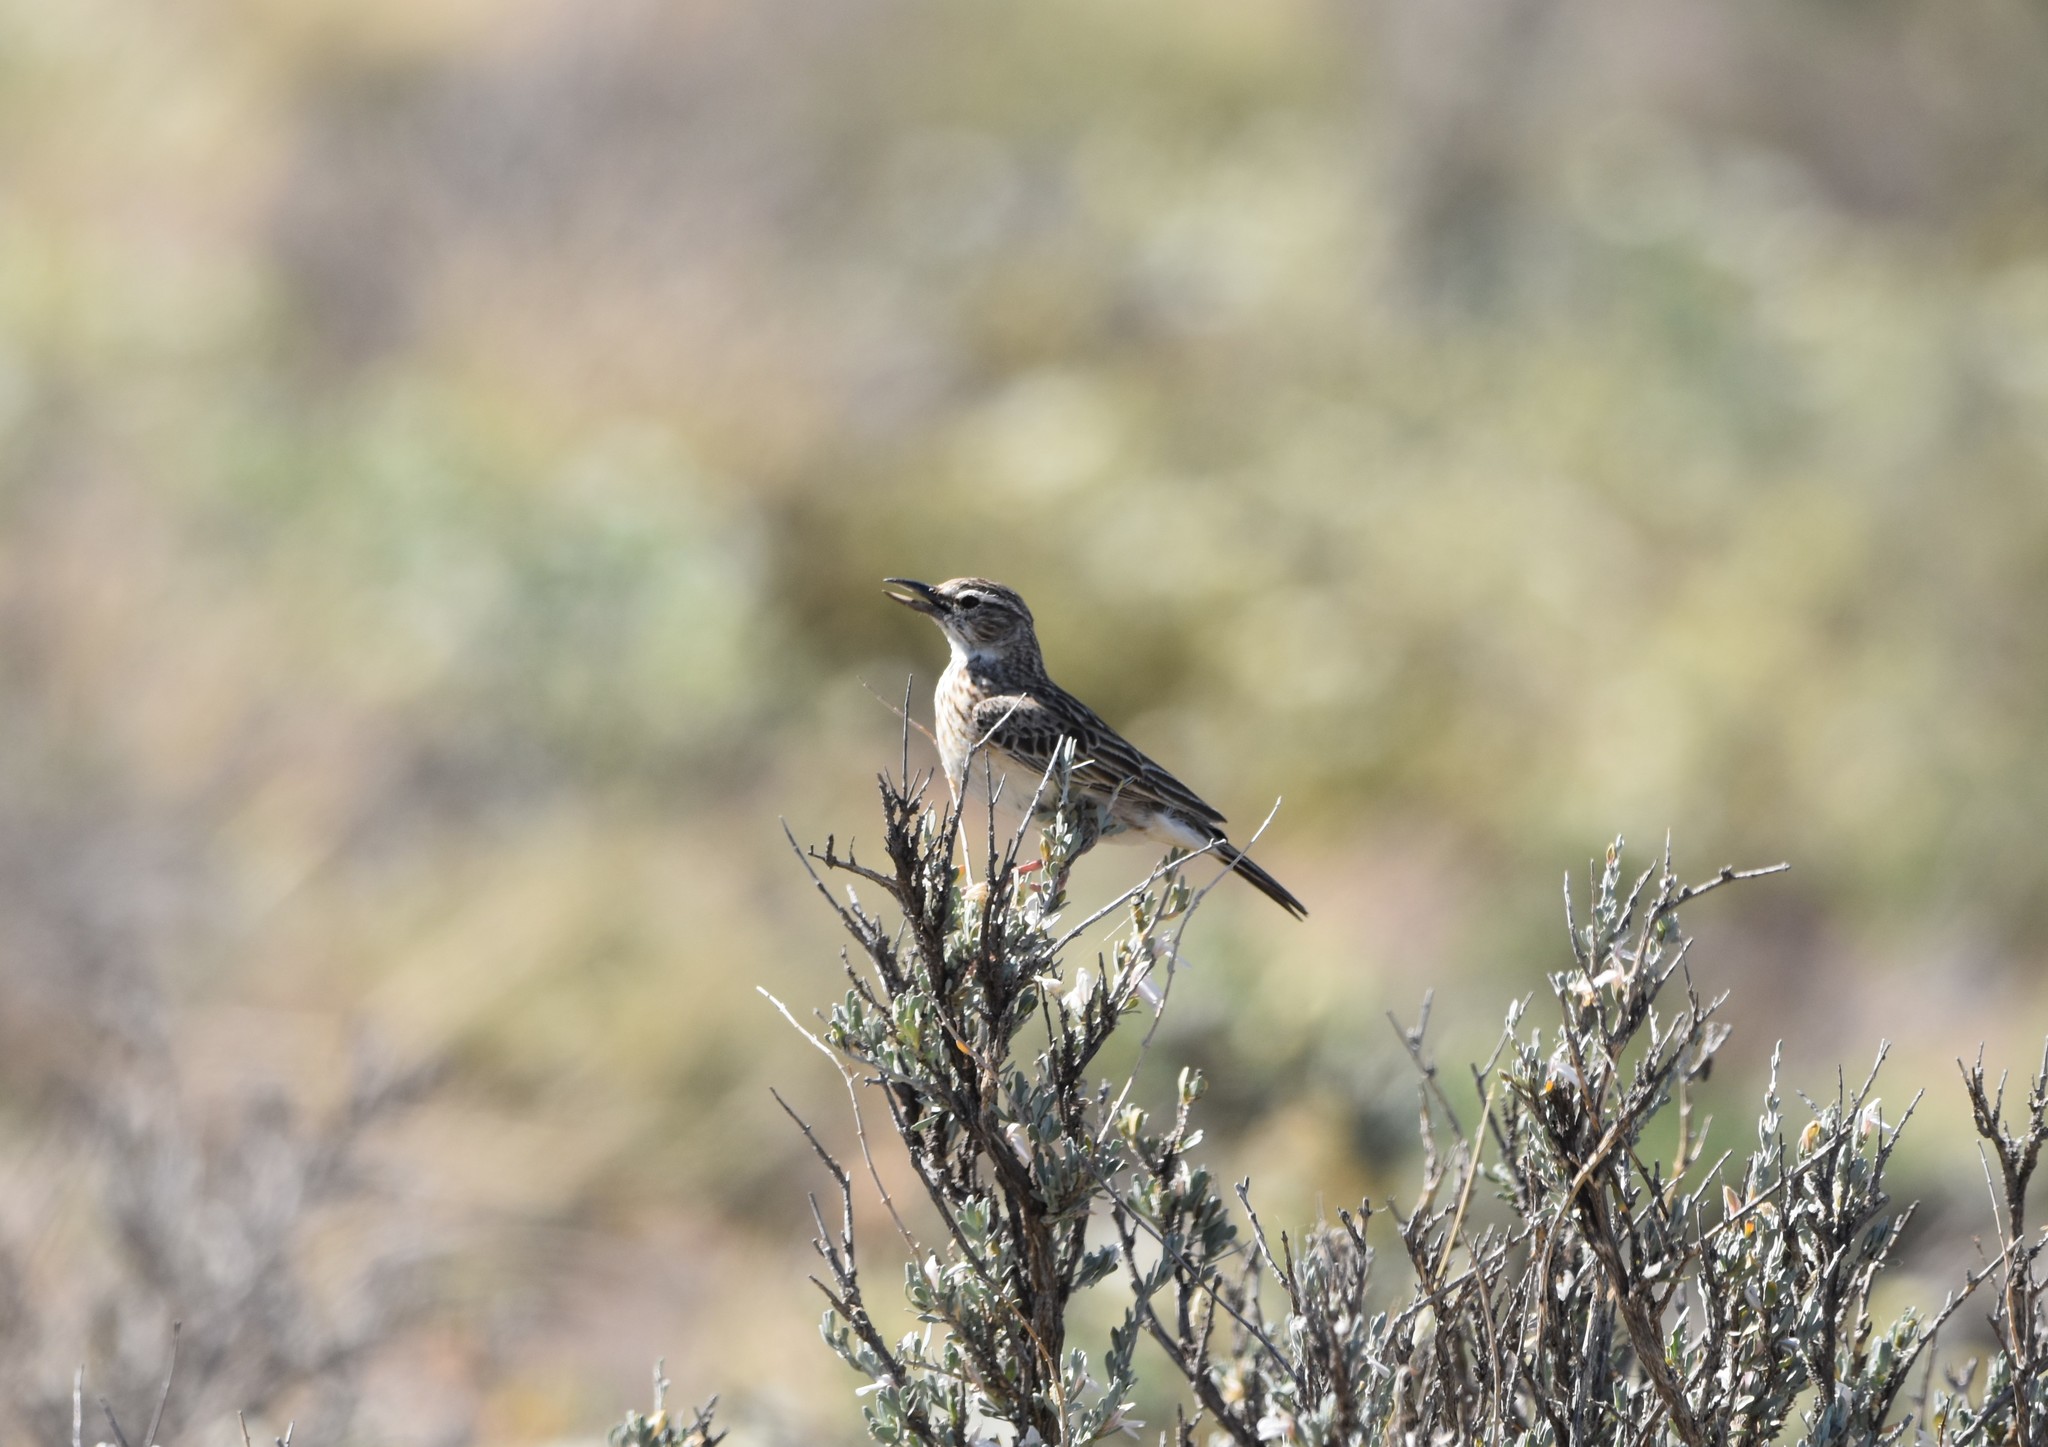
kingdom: Animalia
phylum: Chordata
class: Aves
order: Passeriformes
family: Alaudidae
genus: Calendulauda
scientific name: Calendulauda sabota
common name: Sabota lark
